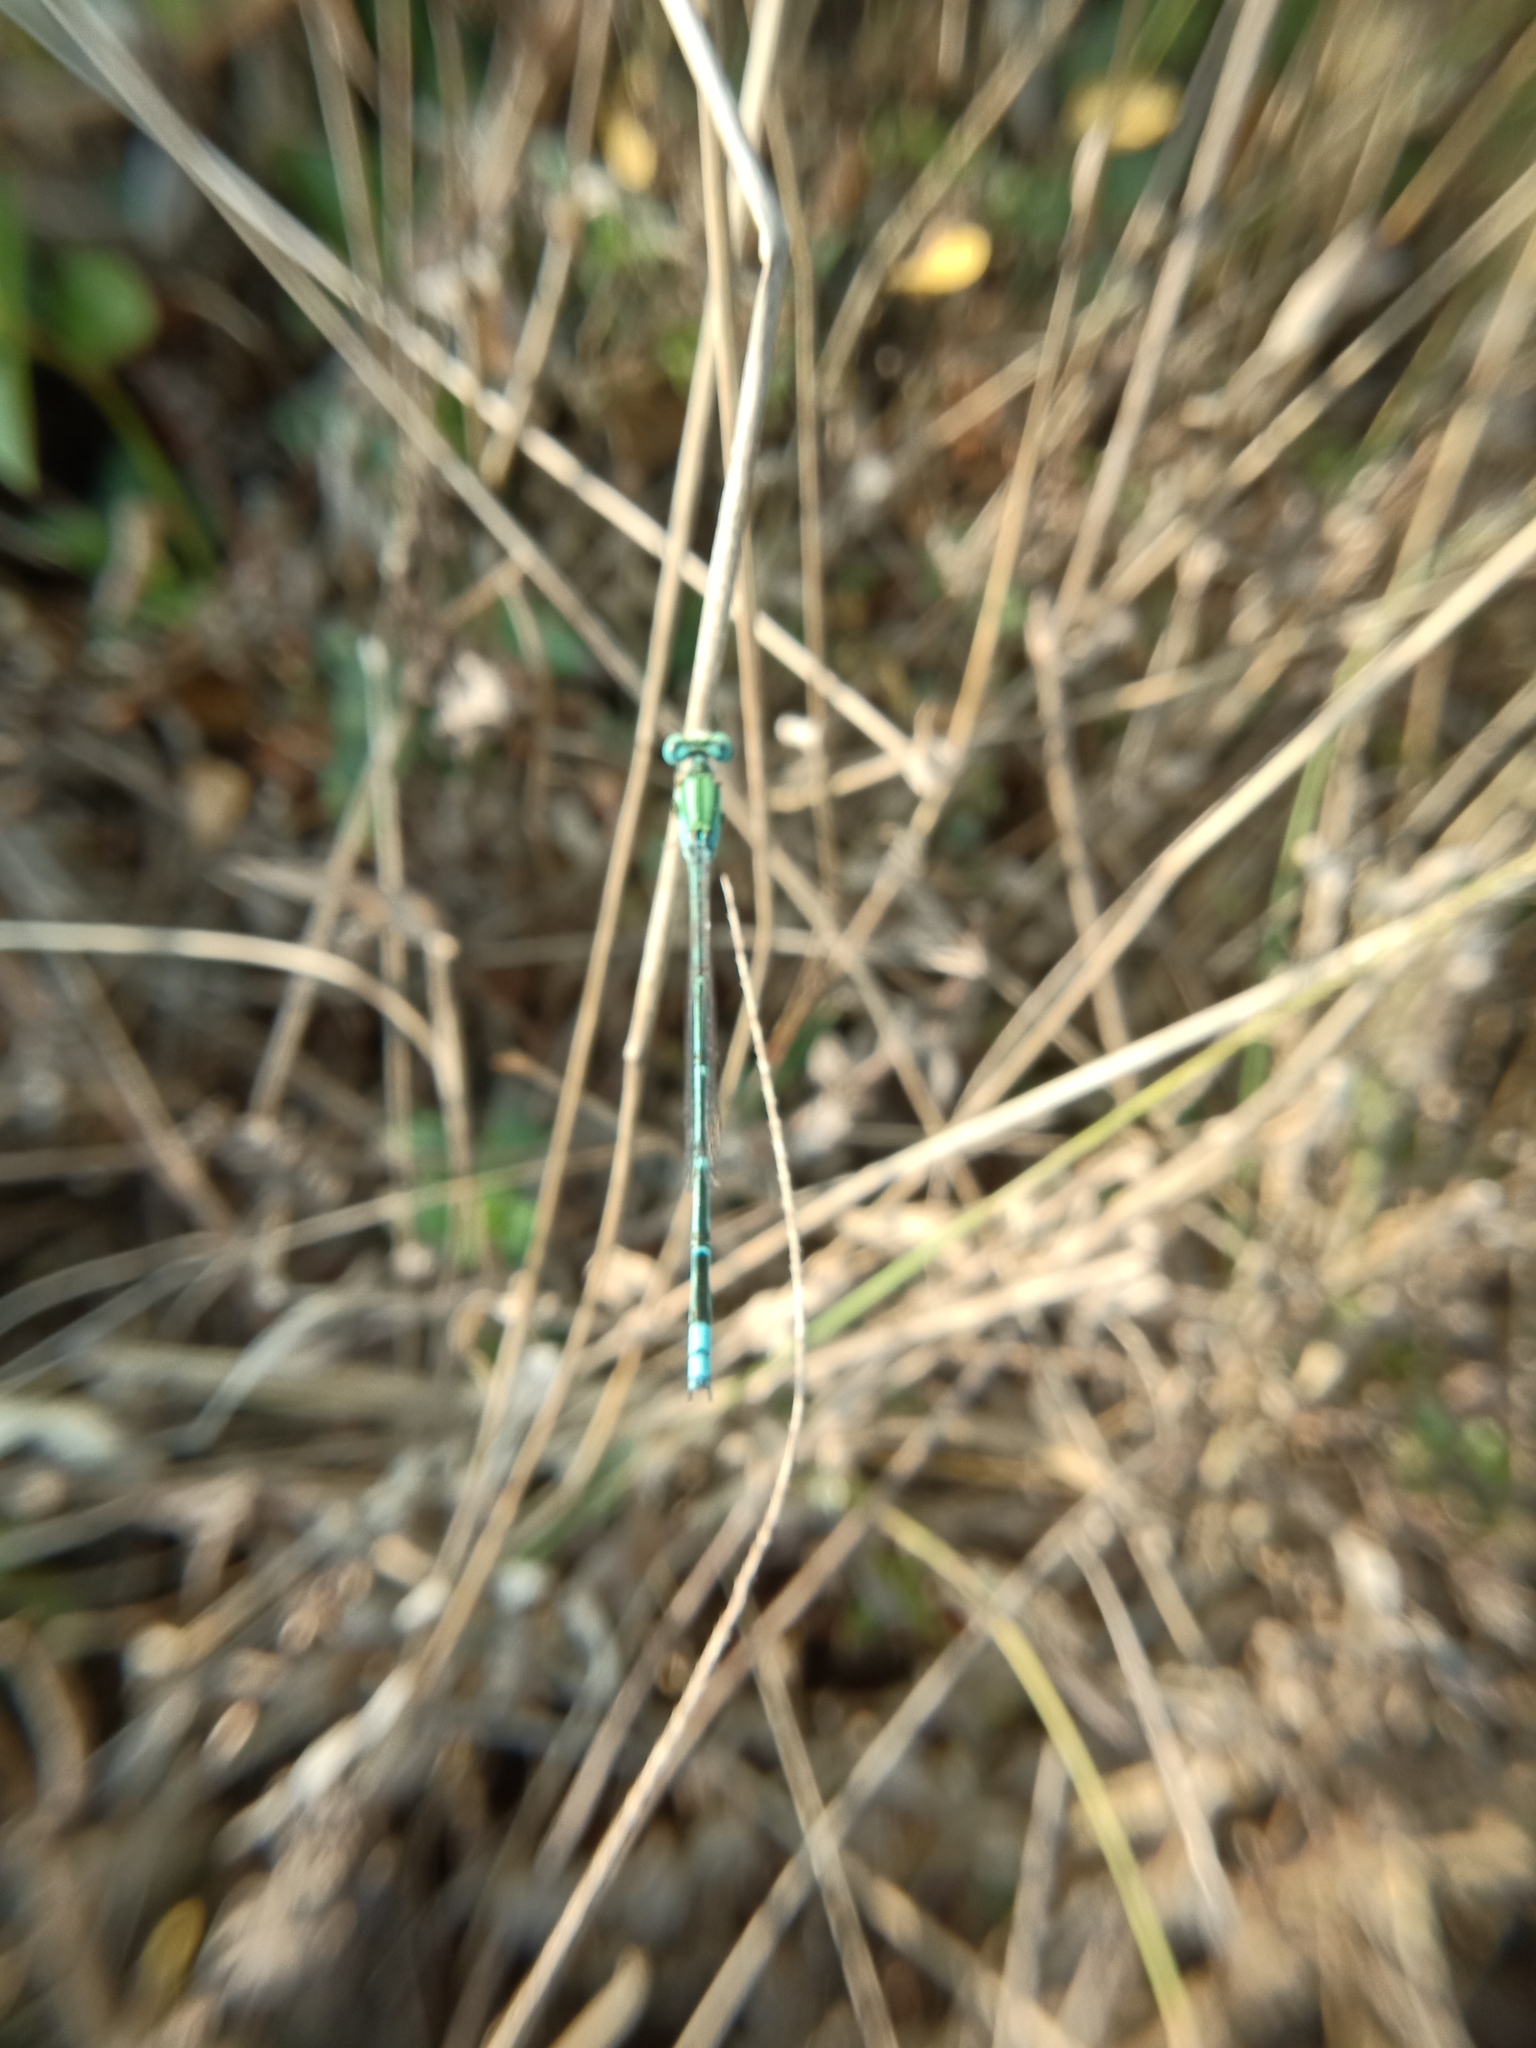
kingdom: Animalia
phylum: Arthropoda
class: Insecta
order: Odonata
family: Coenagrionidae
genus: Pseudagrion
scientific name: Pseudagrion decorum
